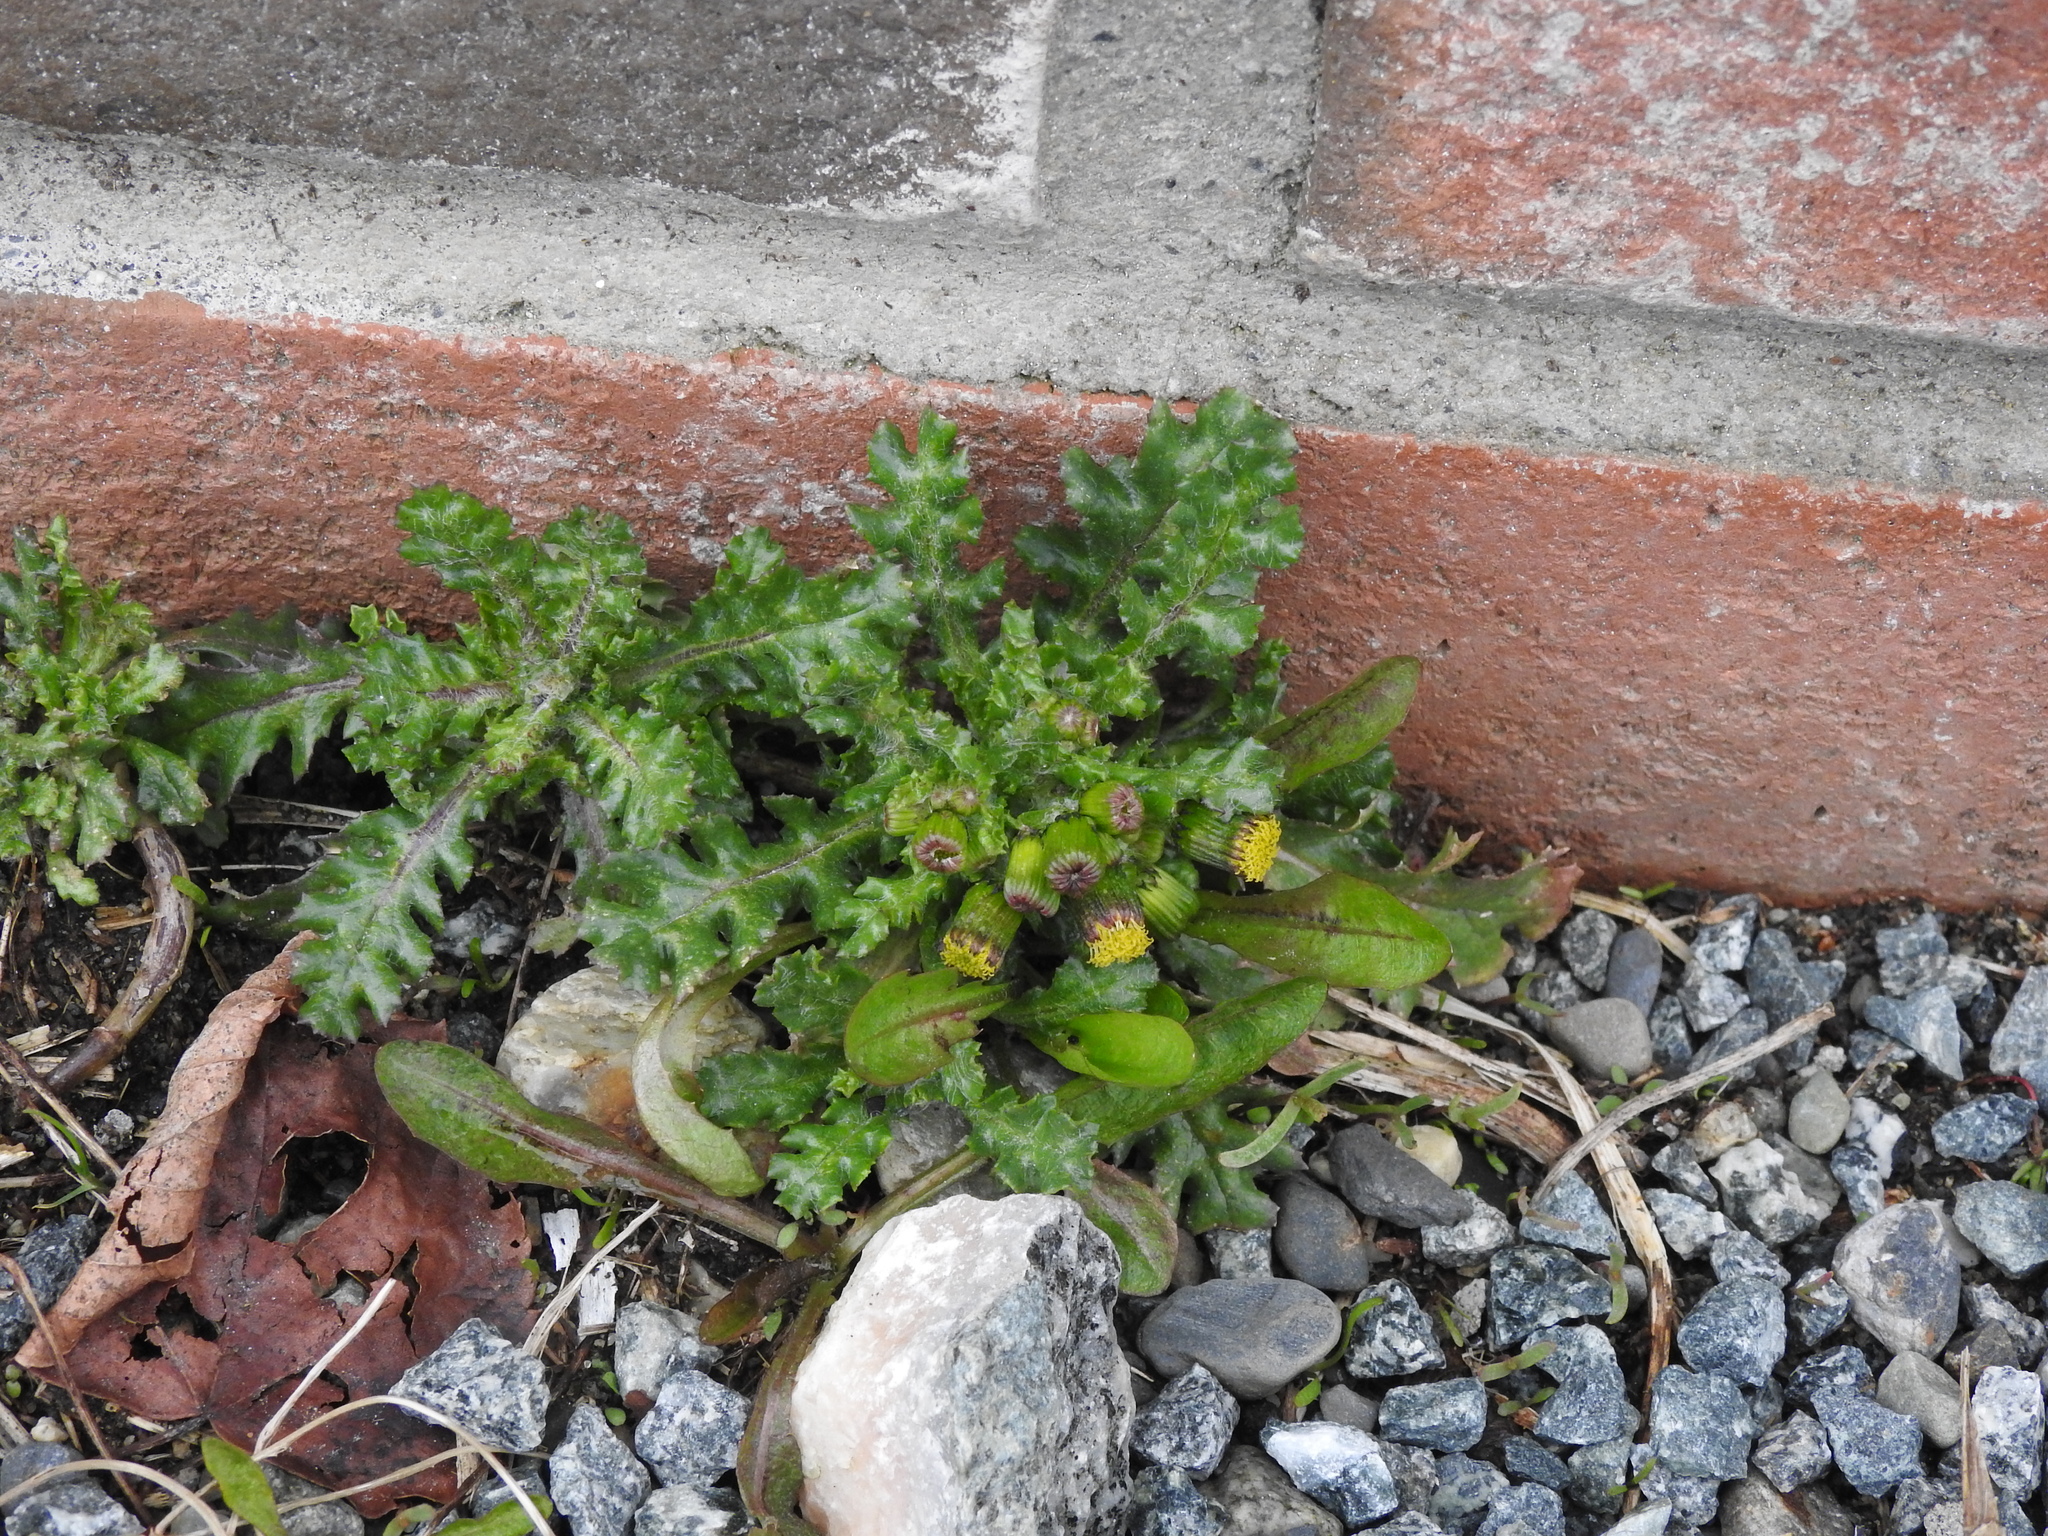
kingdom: Plantae
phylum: Tracheophyta
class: Magnoliopsida
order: Asterales
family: Asteraceae
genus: Senecio
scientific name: Senecio vulgaris
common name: Old-man-in-the-spring
